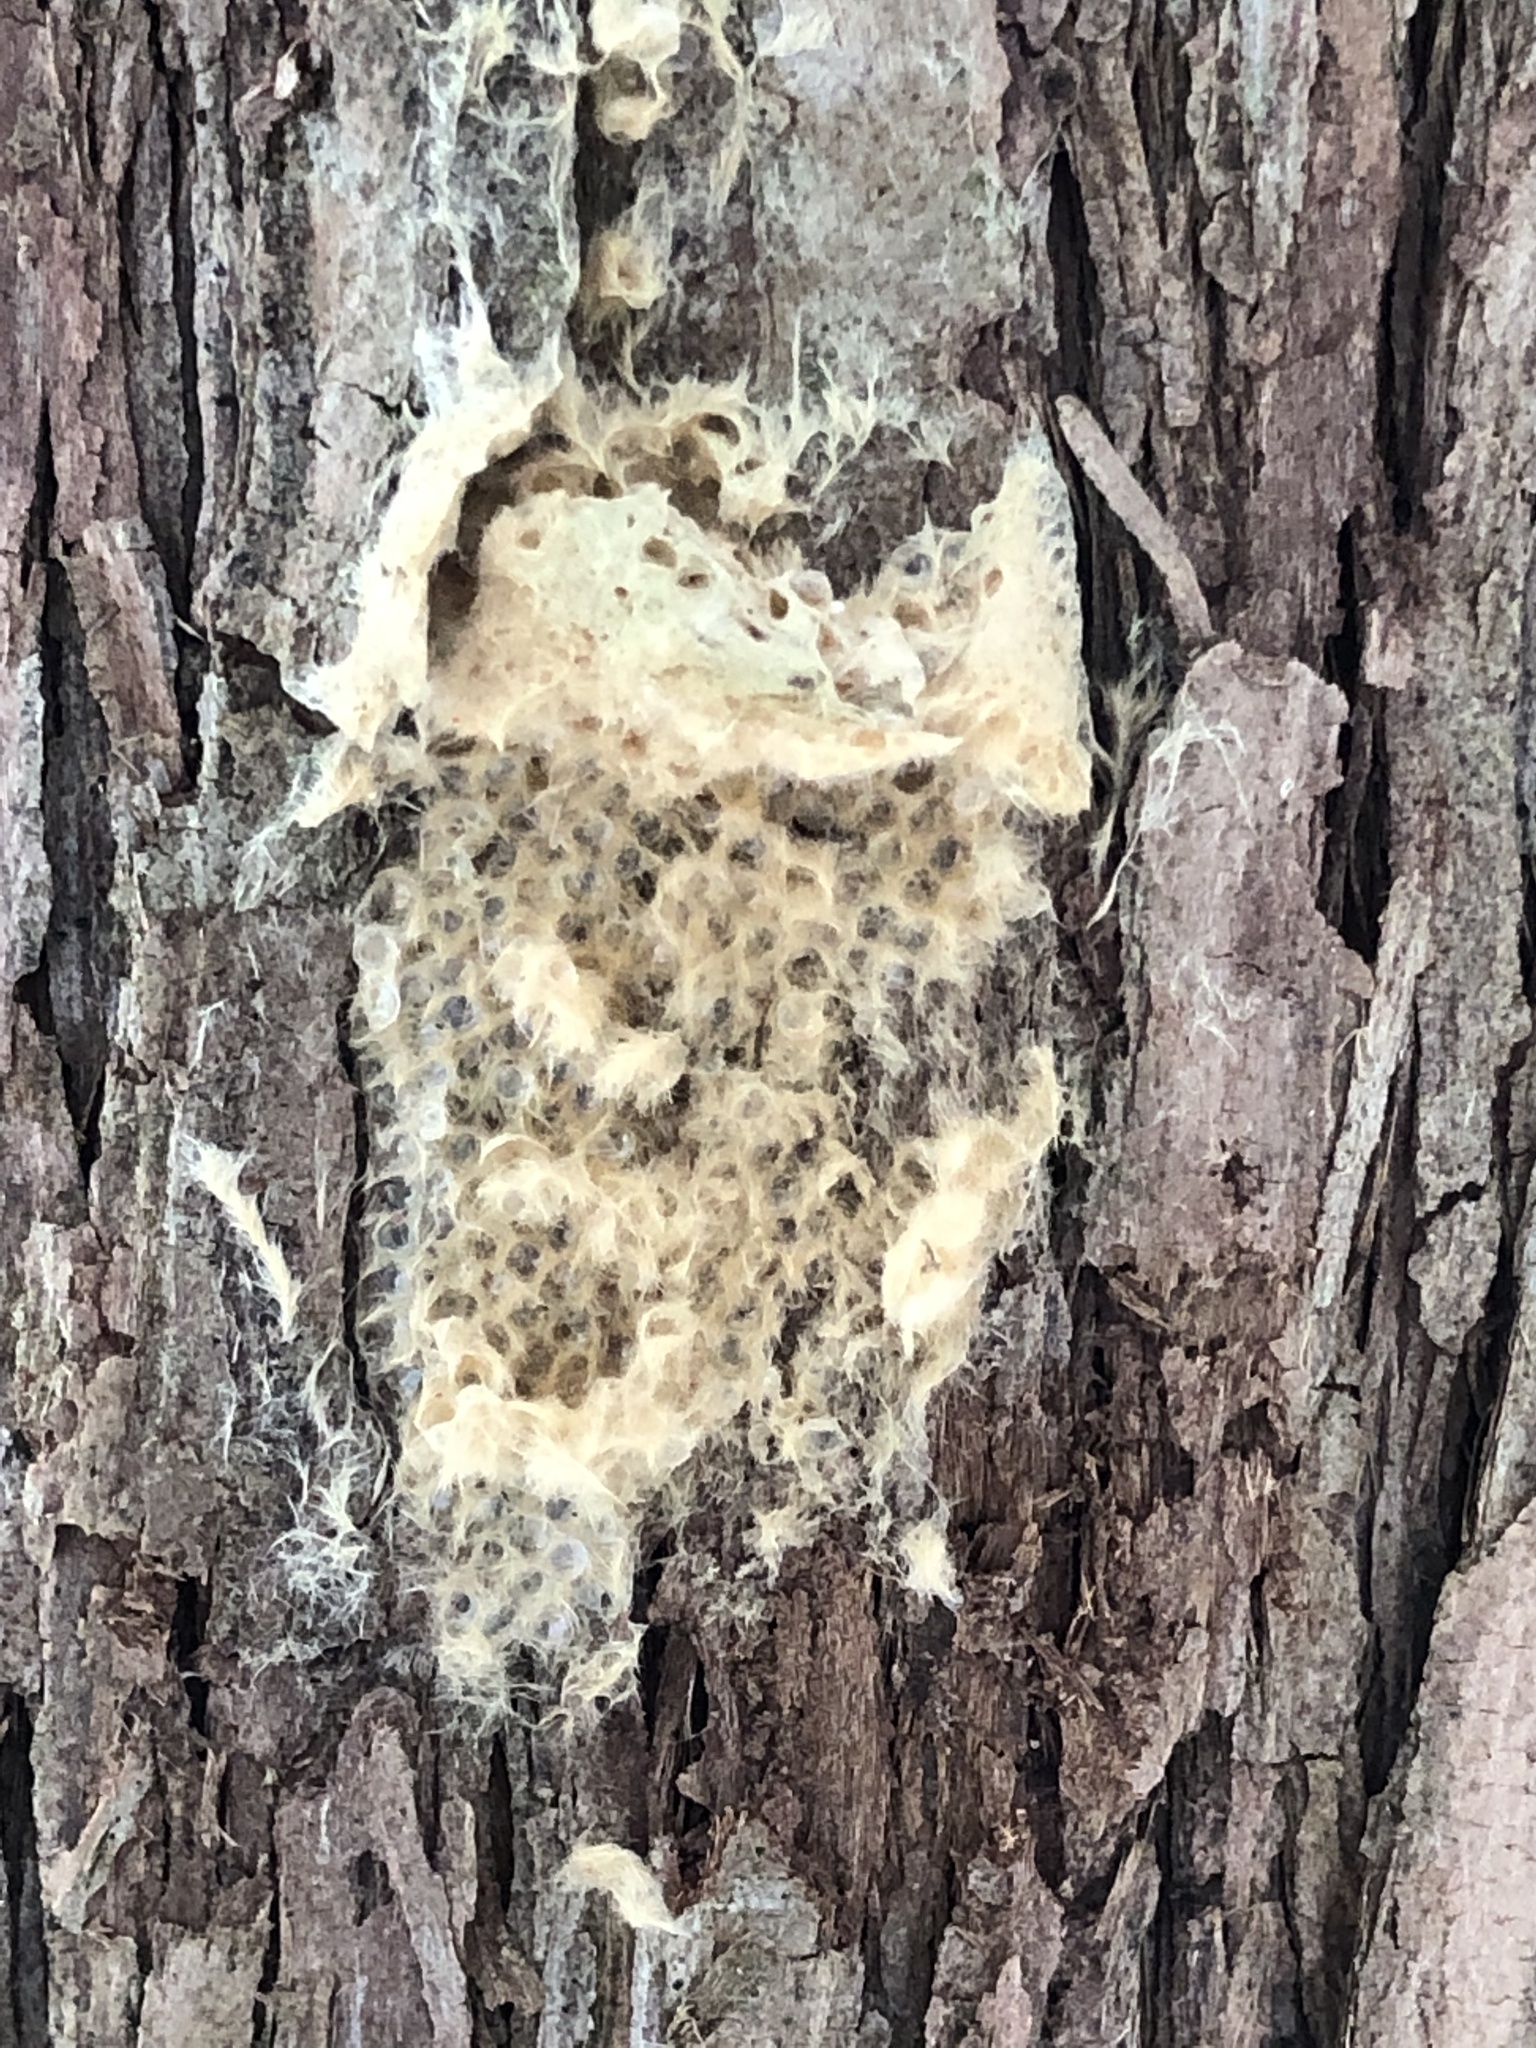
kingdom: Animalia
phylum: Arthropoda
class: Insecta
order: Lepidoptera
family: Erebidae
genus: Lymantria
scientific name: Lymantria dispar
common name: Gypsy moth
